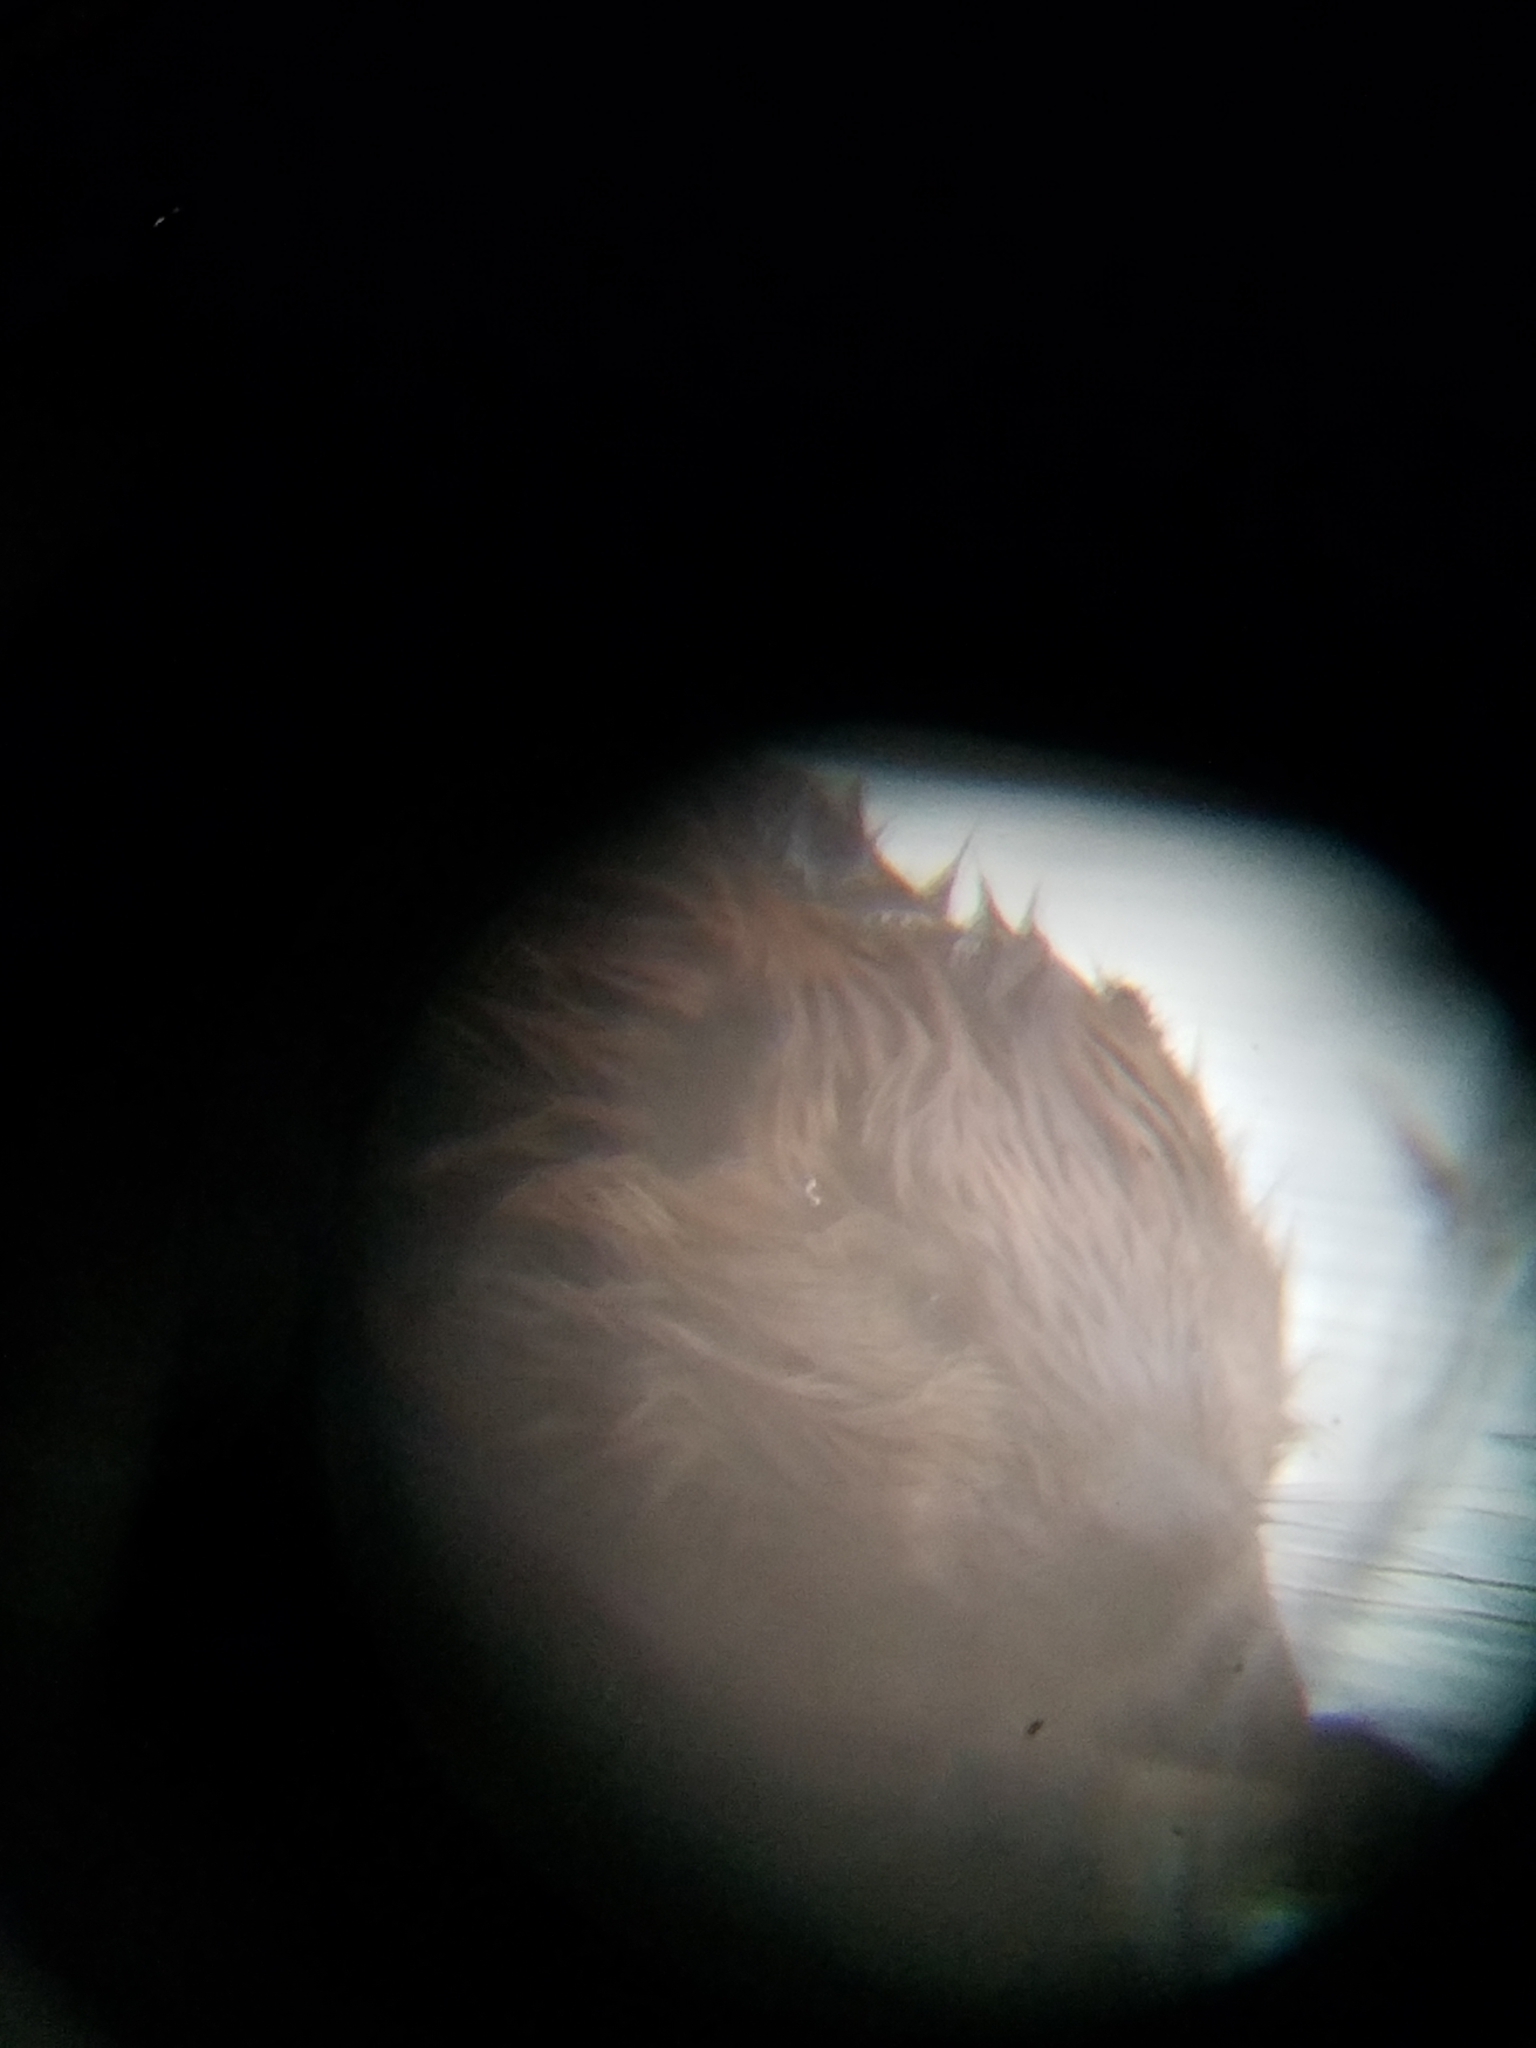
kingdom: Animalia
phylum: Chordata
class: Mammalia
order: Rodentia
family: Castoridae
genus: Castor
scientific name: Castor canadensis
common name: American beaver
